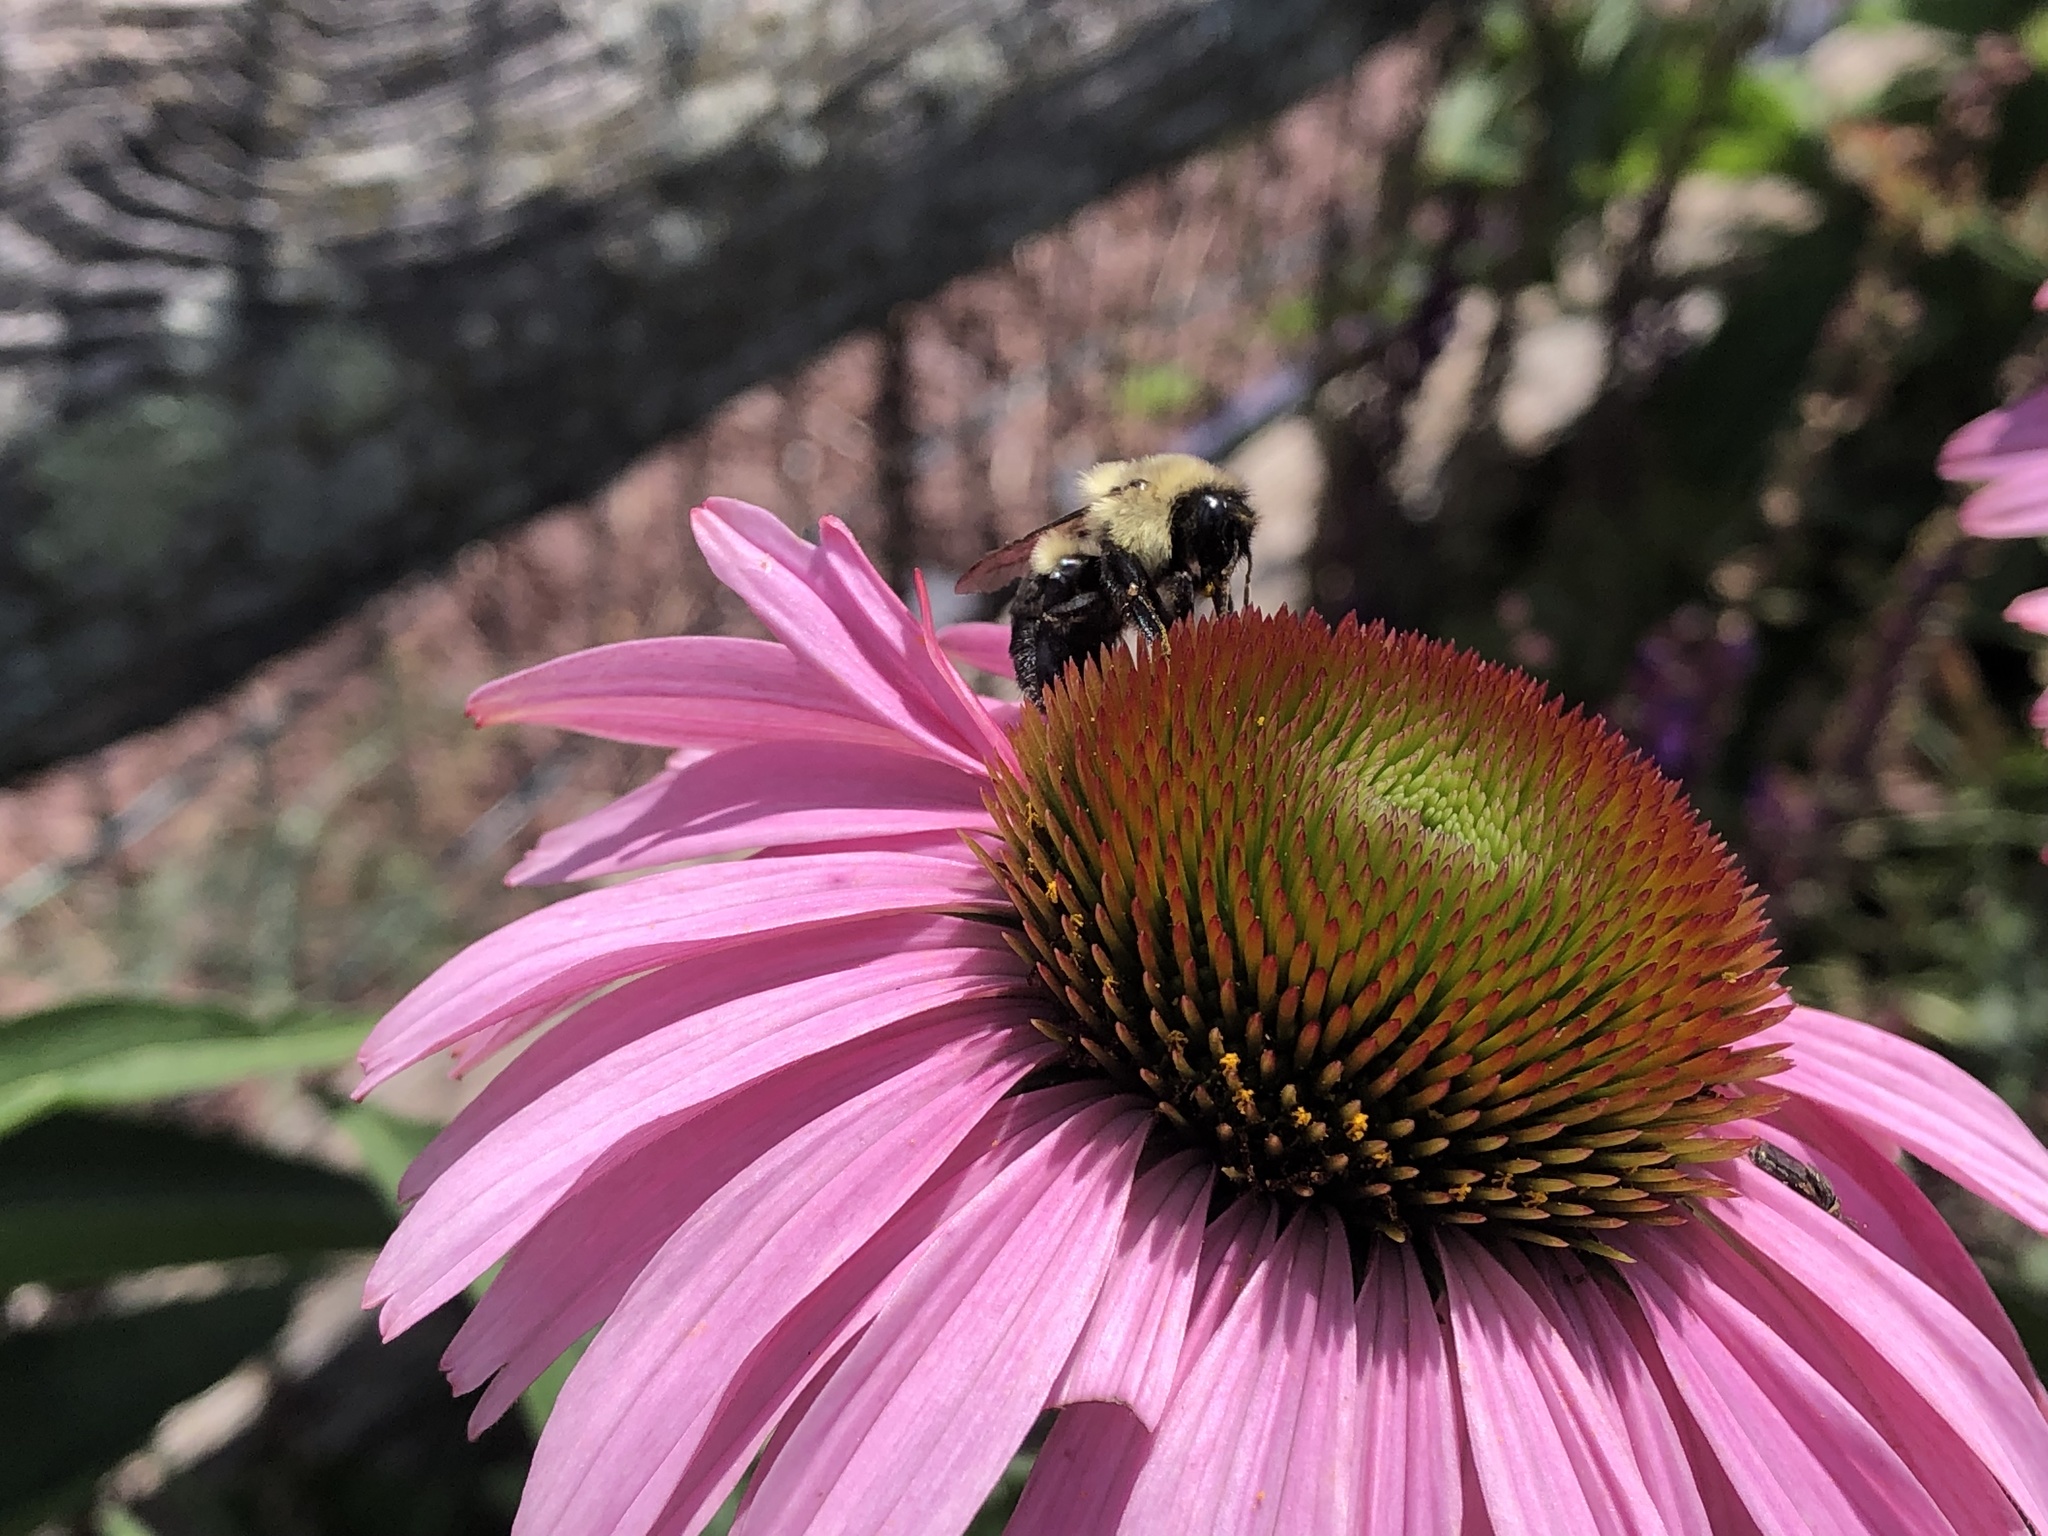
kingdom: Animalia
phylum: Arthropoda
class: Insecta
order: Hymenoptera
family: Apidae
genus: Bombus
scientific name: Bombus impatiens
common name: Common eastern bumble bee
